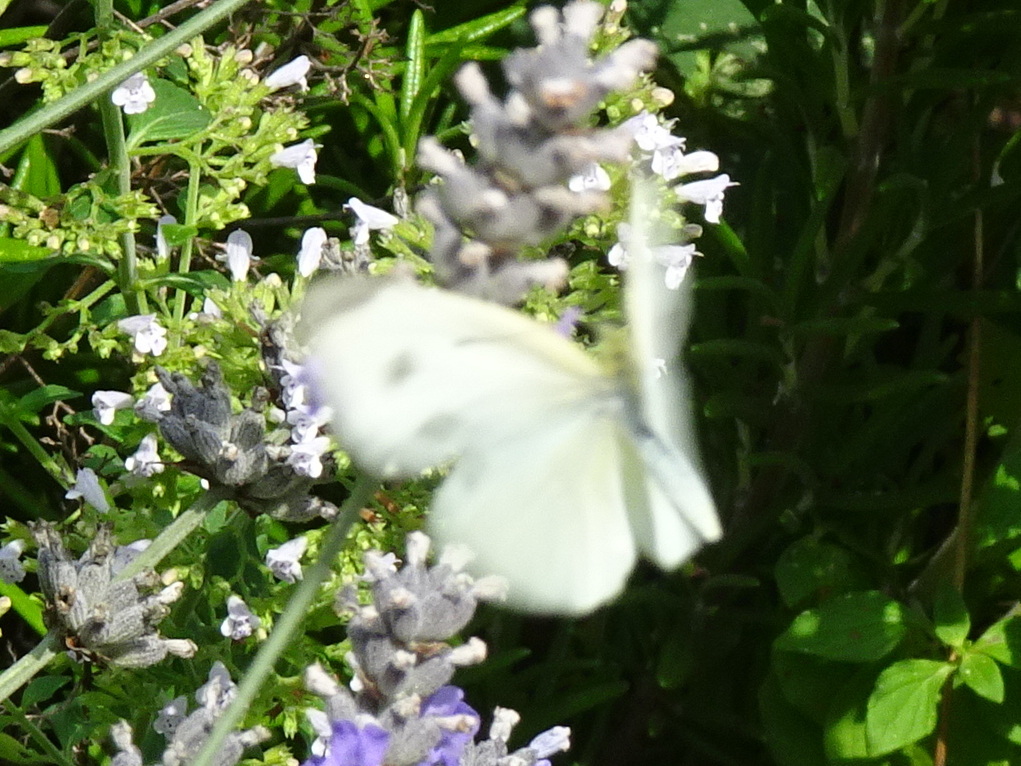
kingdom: Animalia
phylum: Arthropoda
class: Insecta
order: Lepidoptera
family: Pieridae
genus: Pieris
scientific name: Pieris rapae
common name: Small white
